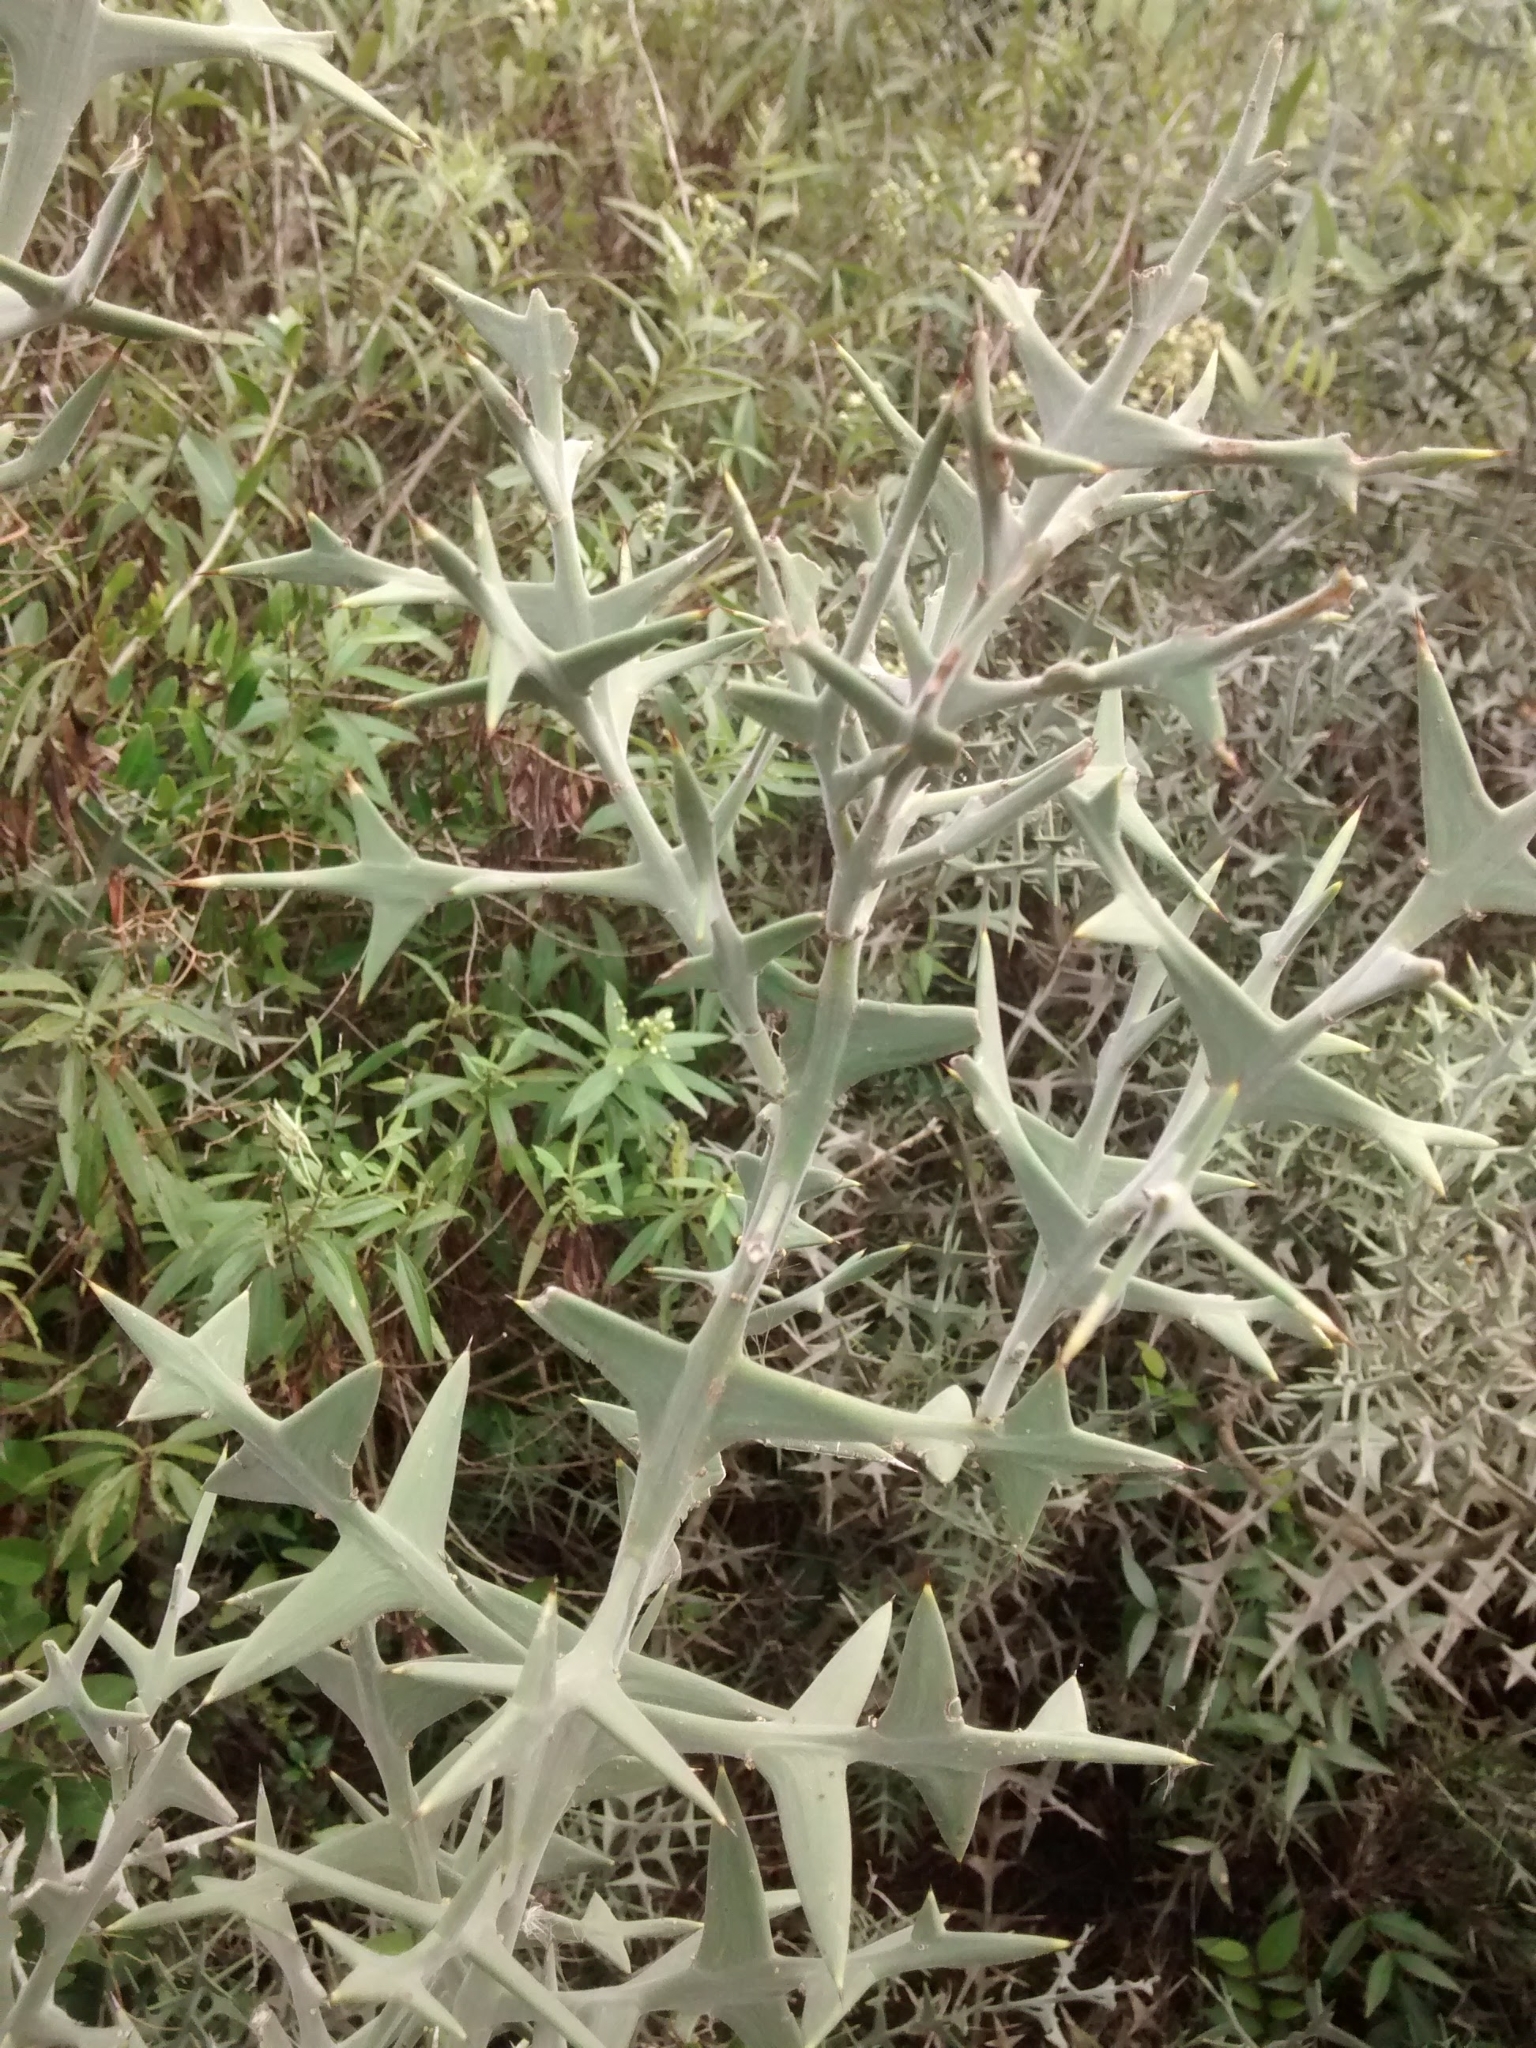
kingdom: Plantae
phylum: Tracheophyta
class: Magnoliopsida
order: Rosales
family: Rhamnaceae
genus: Colletia
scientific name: Colletia paradoxa
